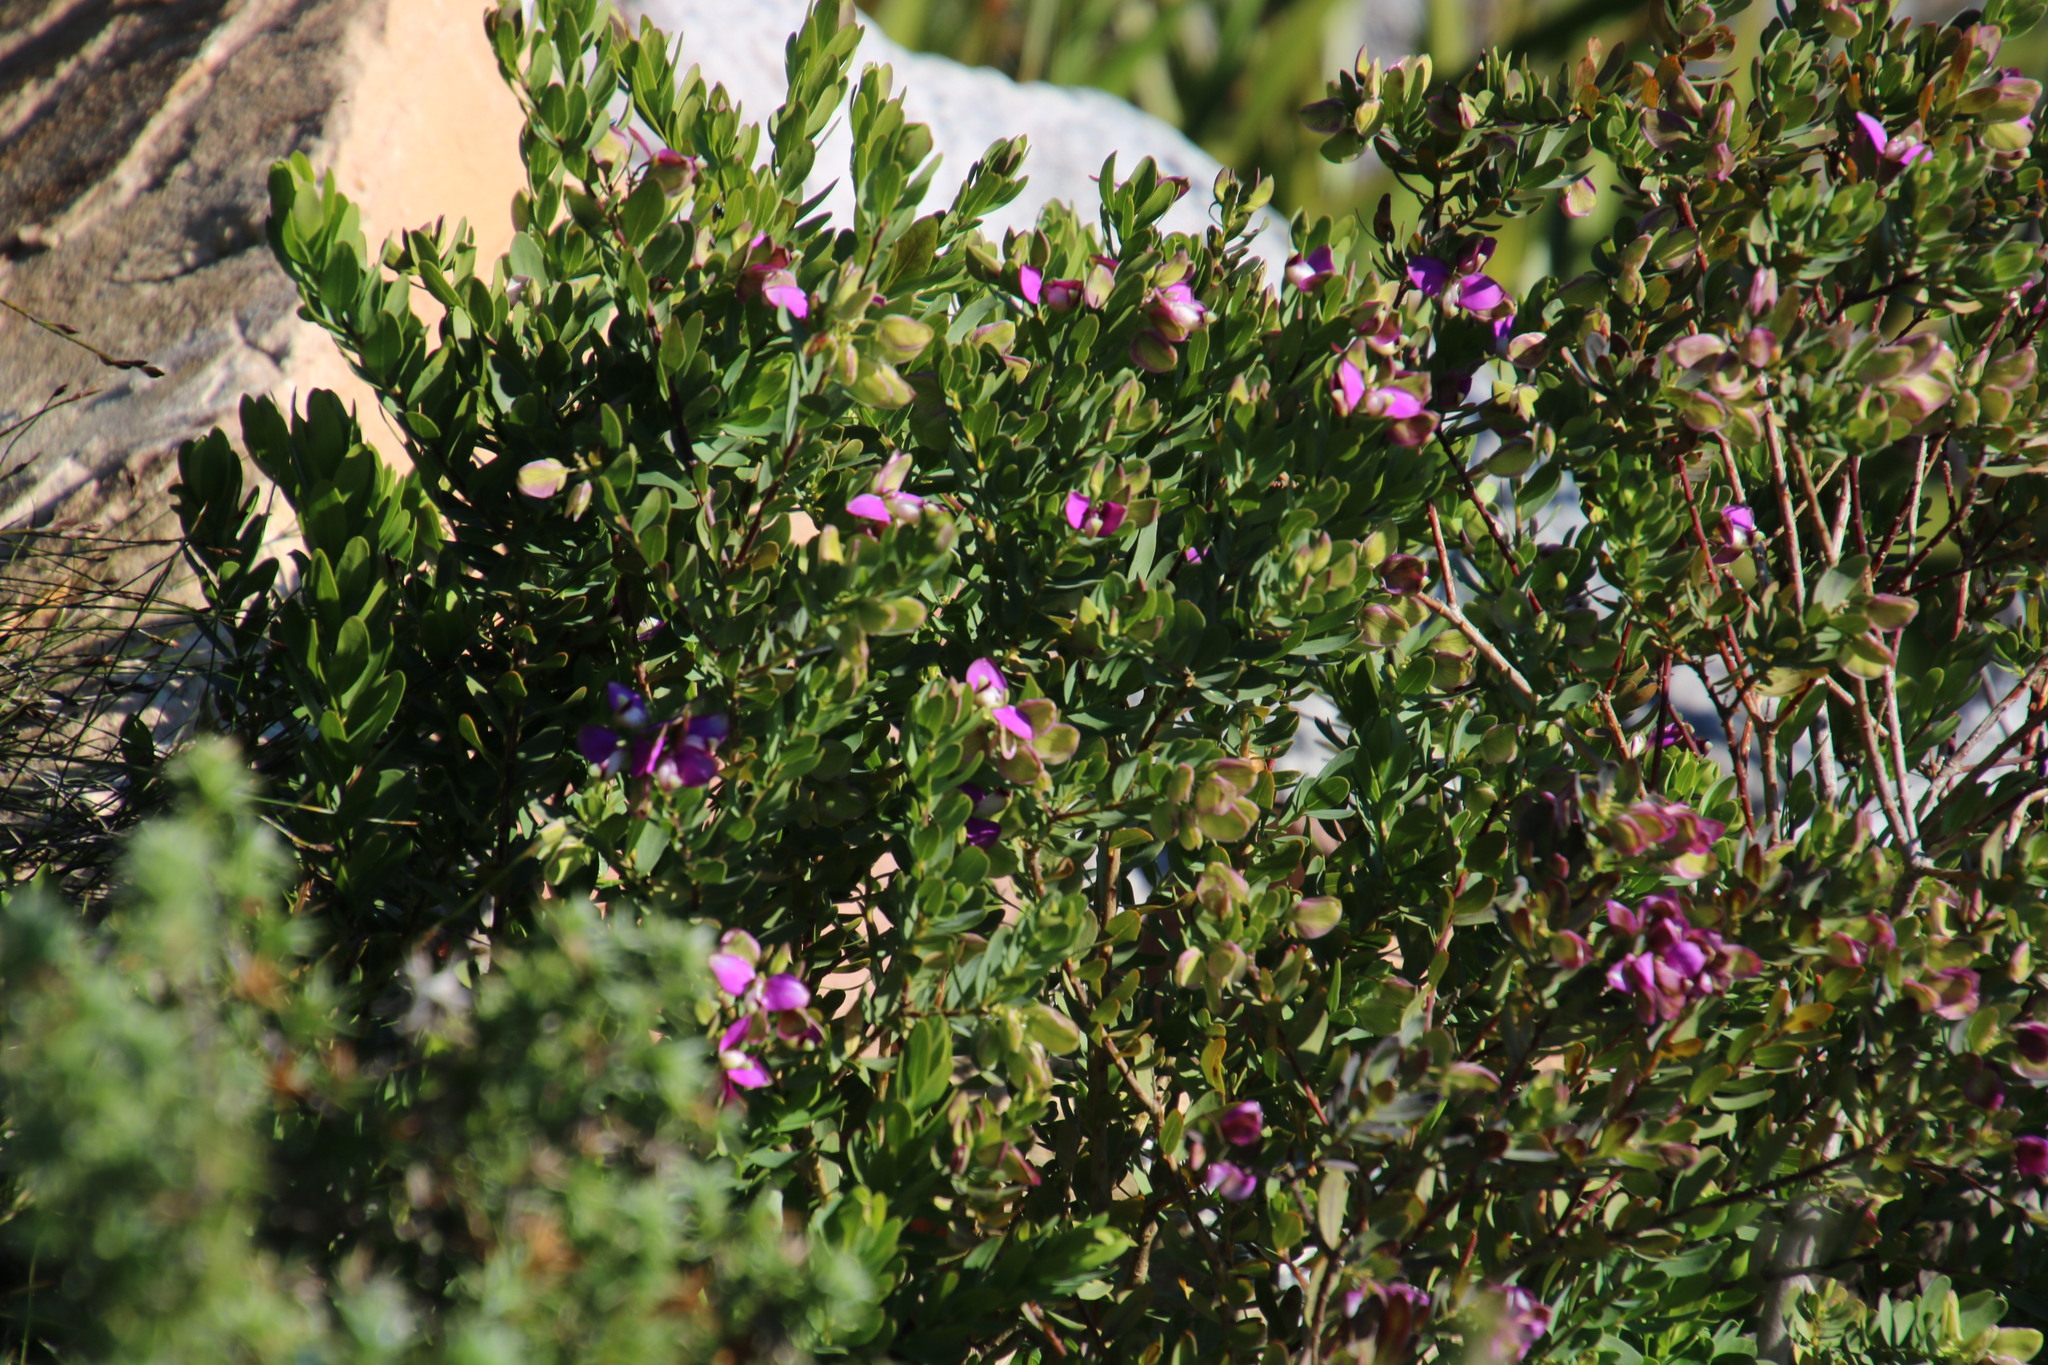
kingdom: Plantae
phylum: Tracheophyta
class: Magnoliopsida
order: Fabales
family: Polygalaceae
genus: Polygala
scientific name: Polygala myrtifolia
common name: Myrtle-leaf milkwort
